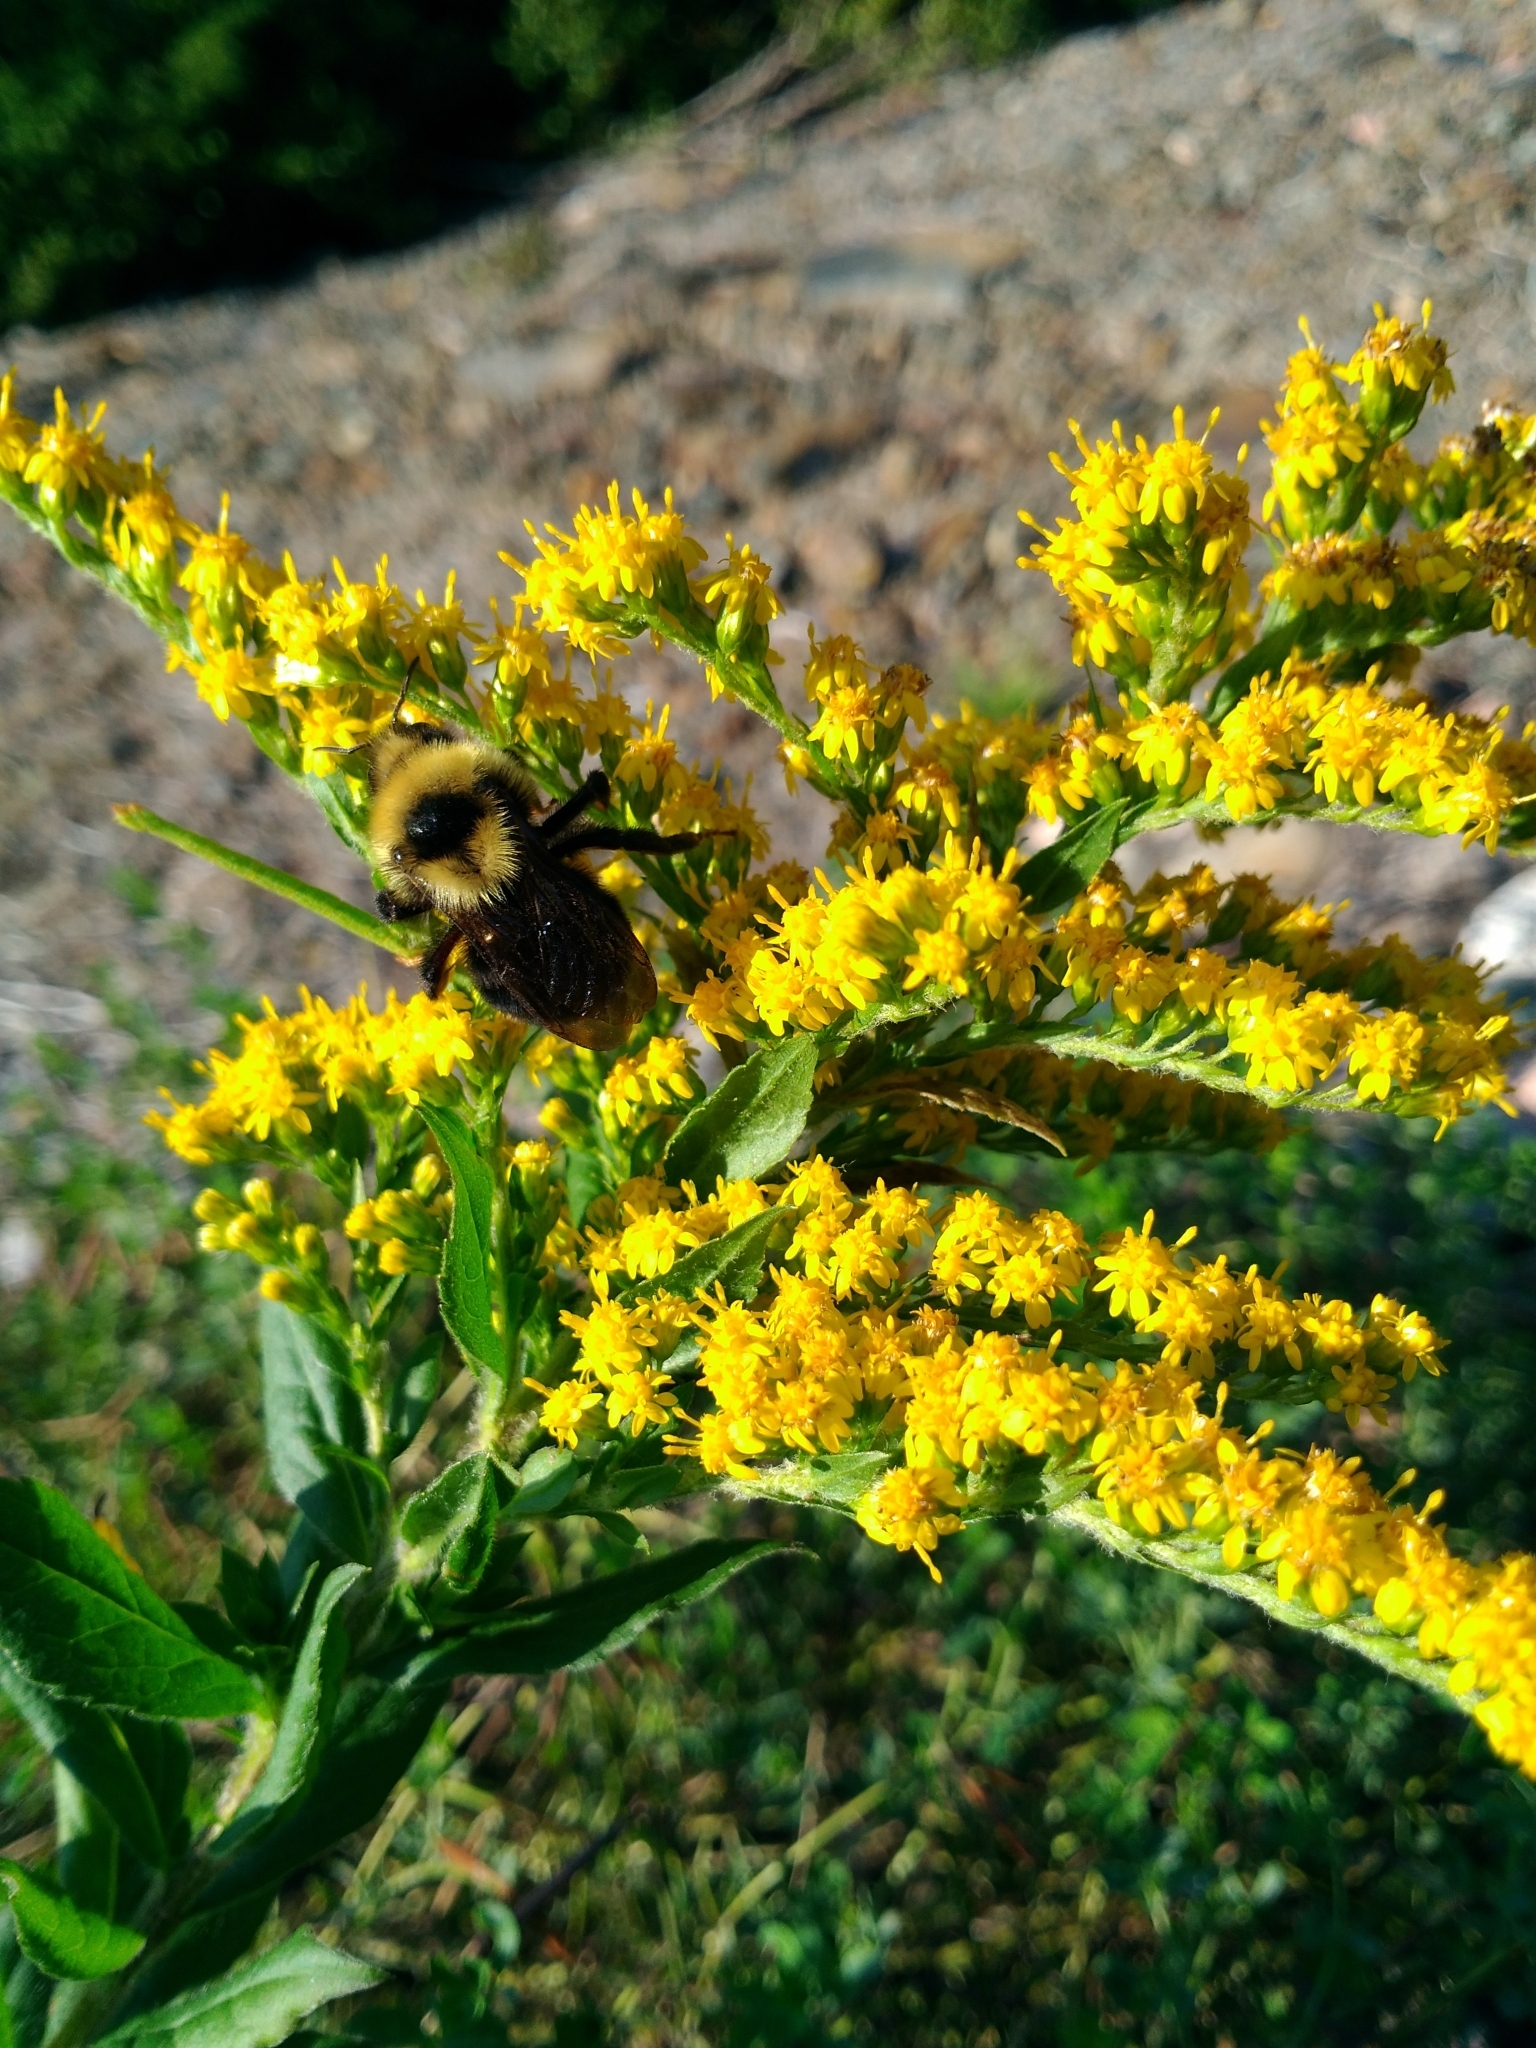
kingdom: Animalia
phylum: Arthropoda
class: Insecta
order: Hymenoptera
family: Apidae
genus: Bombus
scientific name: Bombus flavidus
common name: Fernald cuckoo bumble bee
